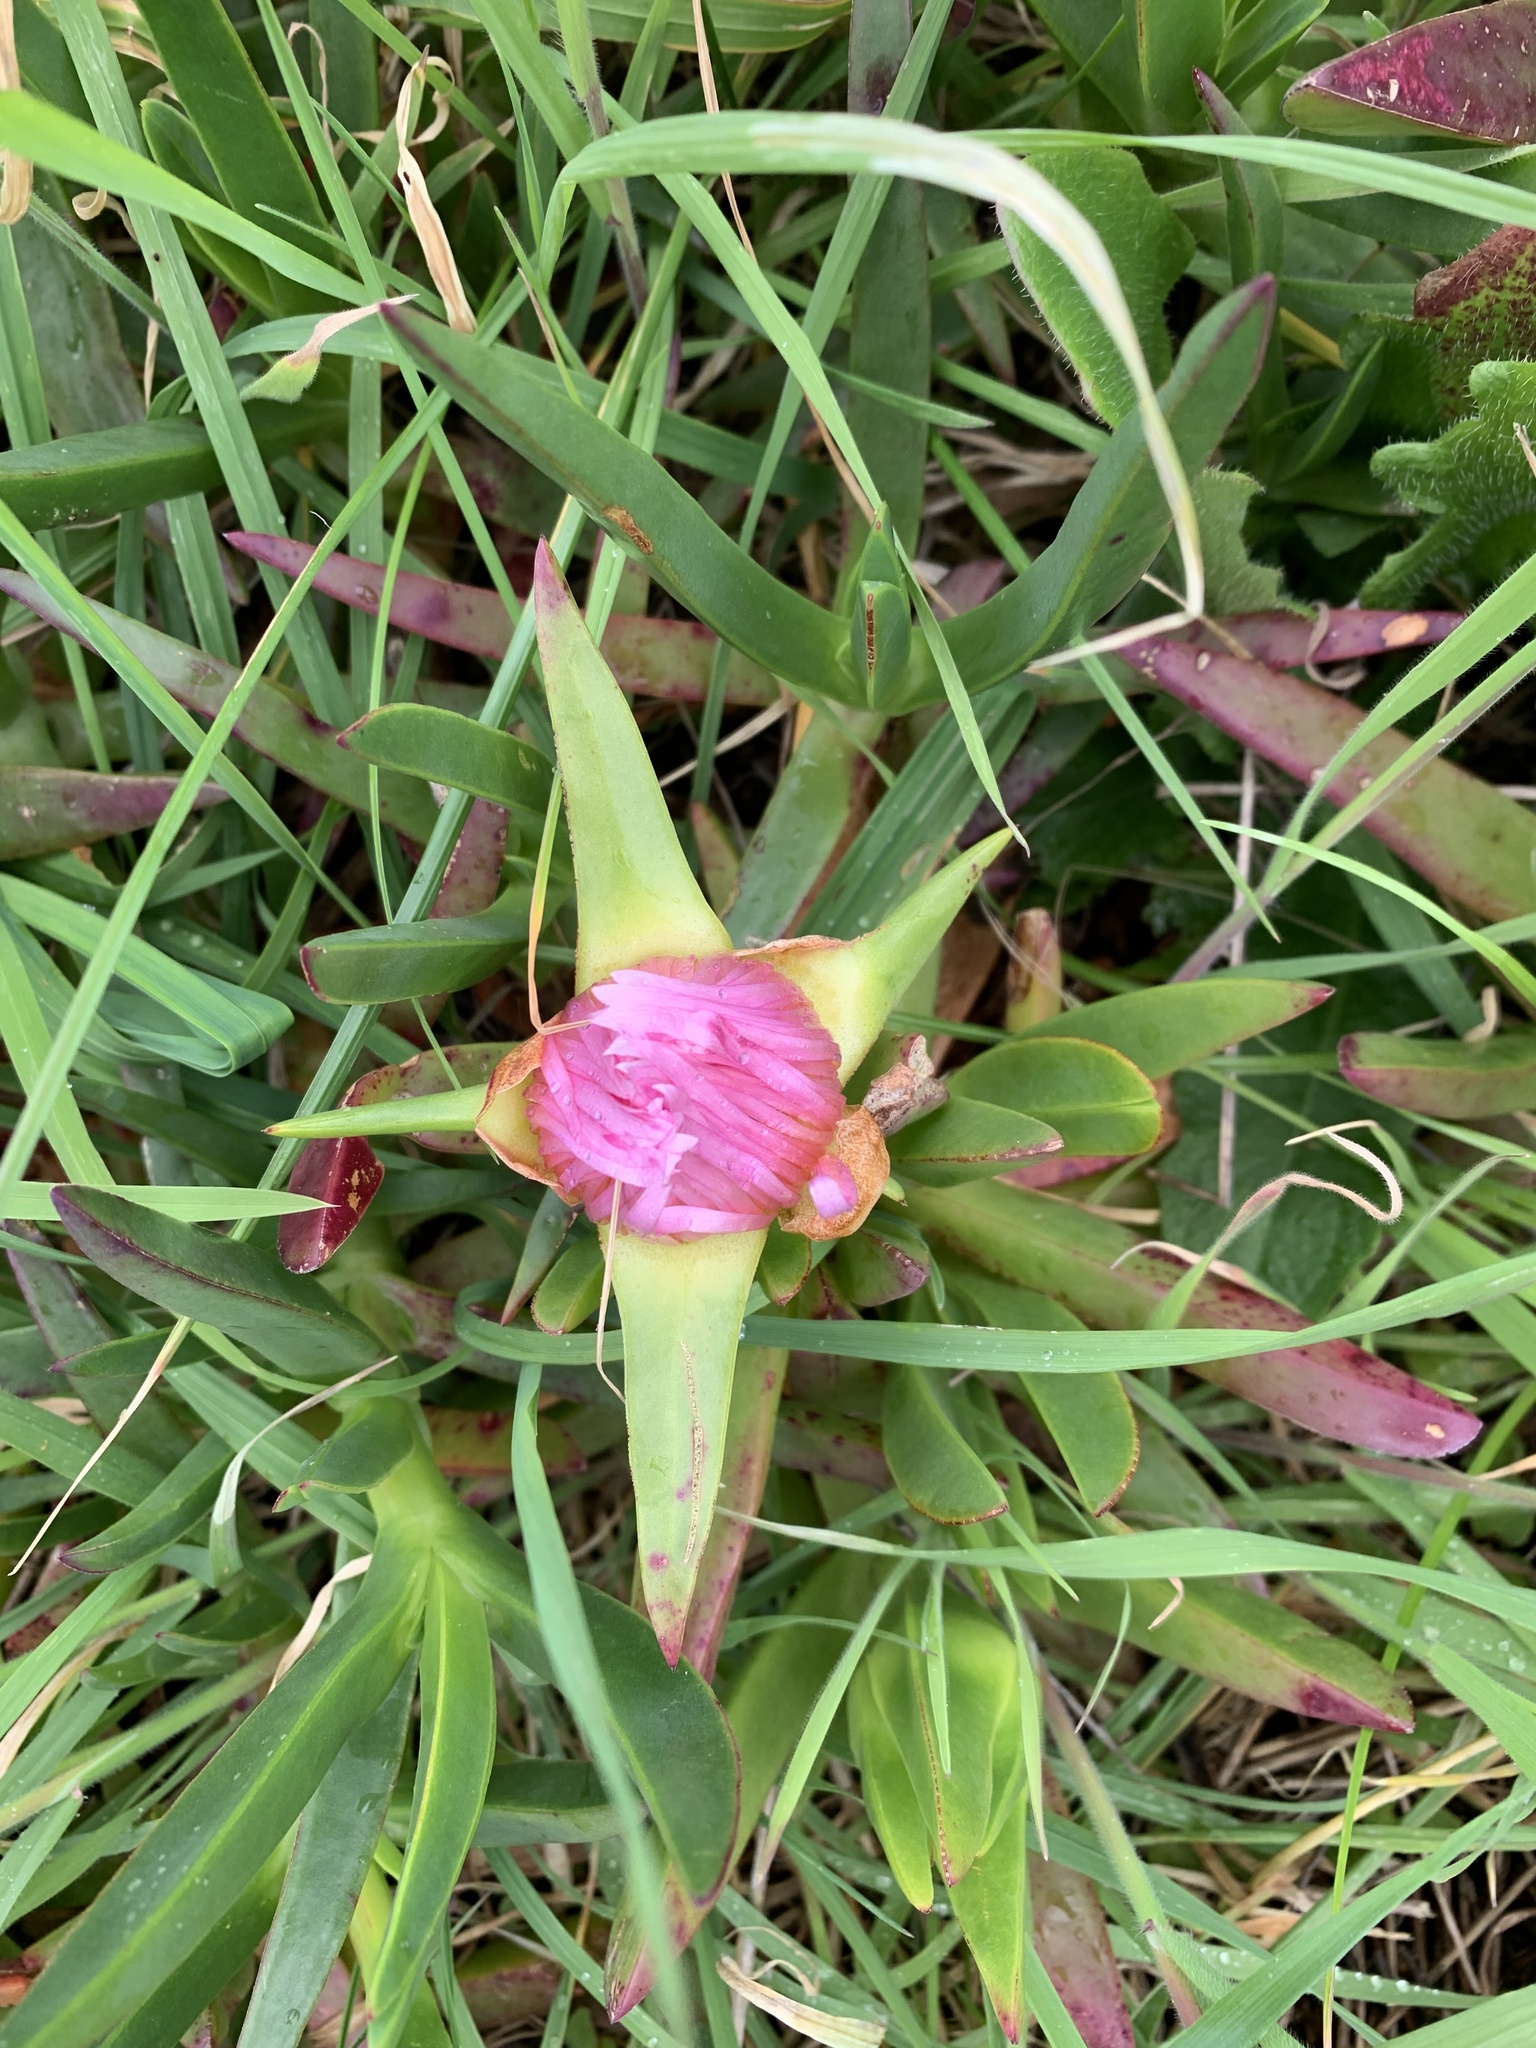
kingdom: Plantae
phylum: Tracheophyta
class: Magnoliopsida
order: Caryophyllales
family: Aizoaceae
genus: Carpobrotus
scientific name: Carpobrotus chilensis
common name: Sea fig
